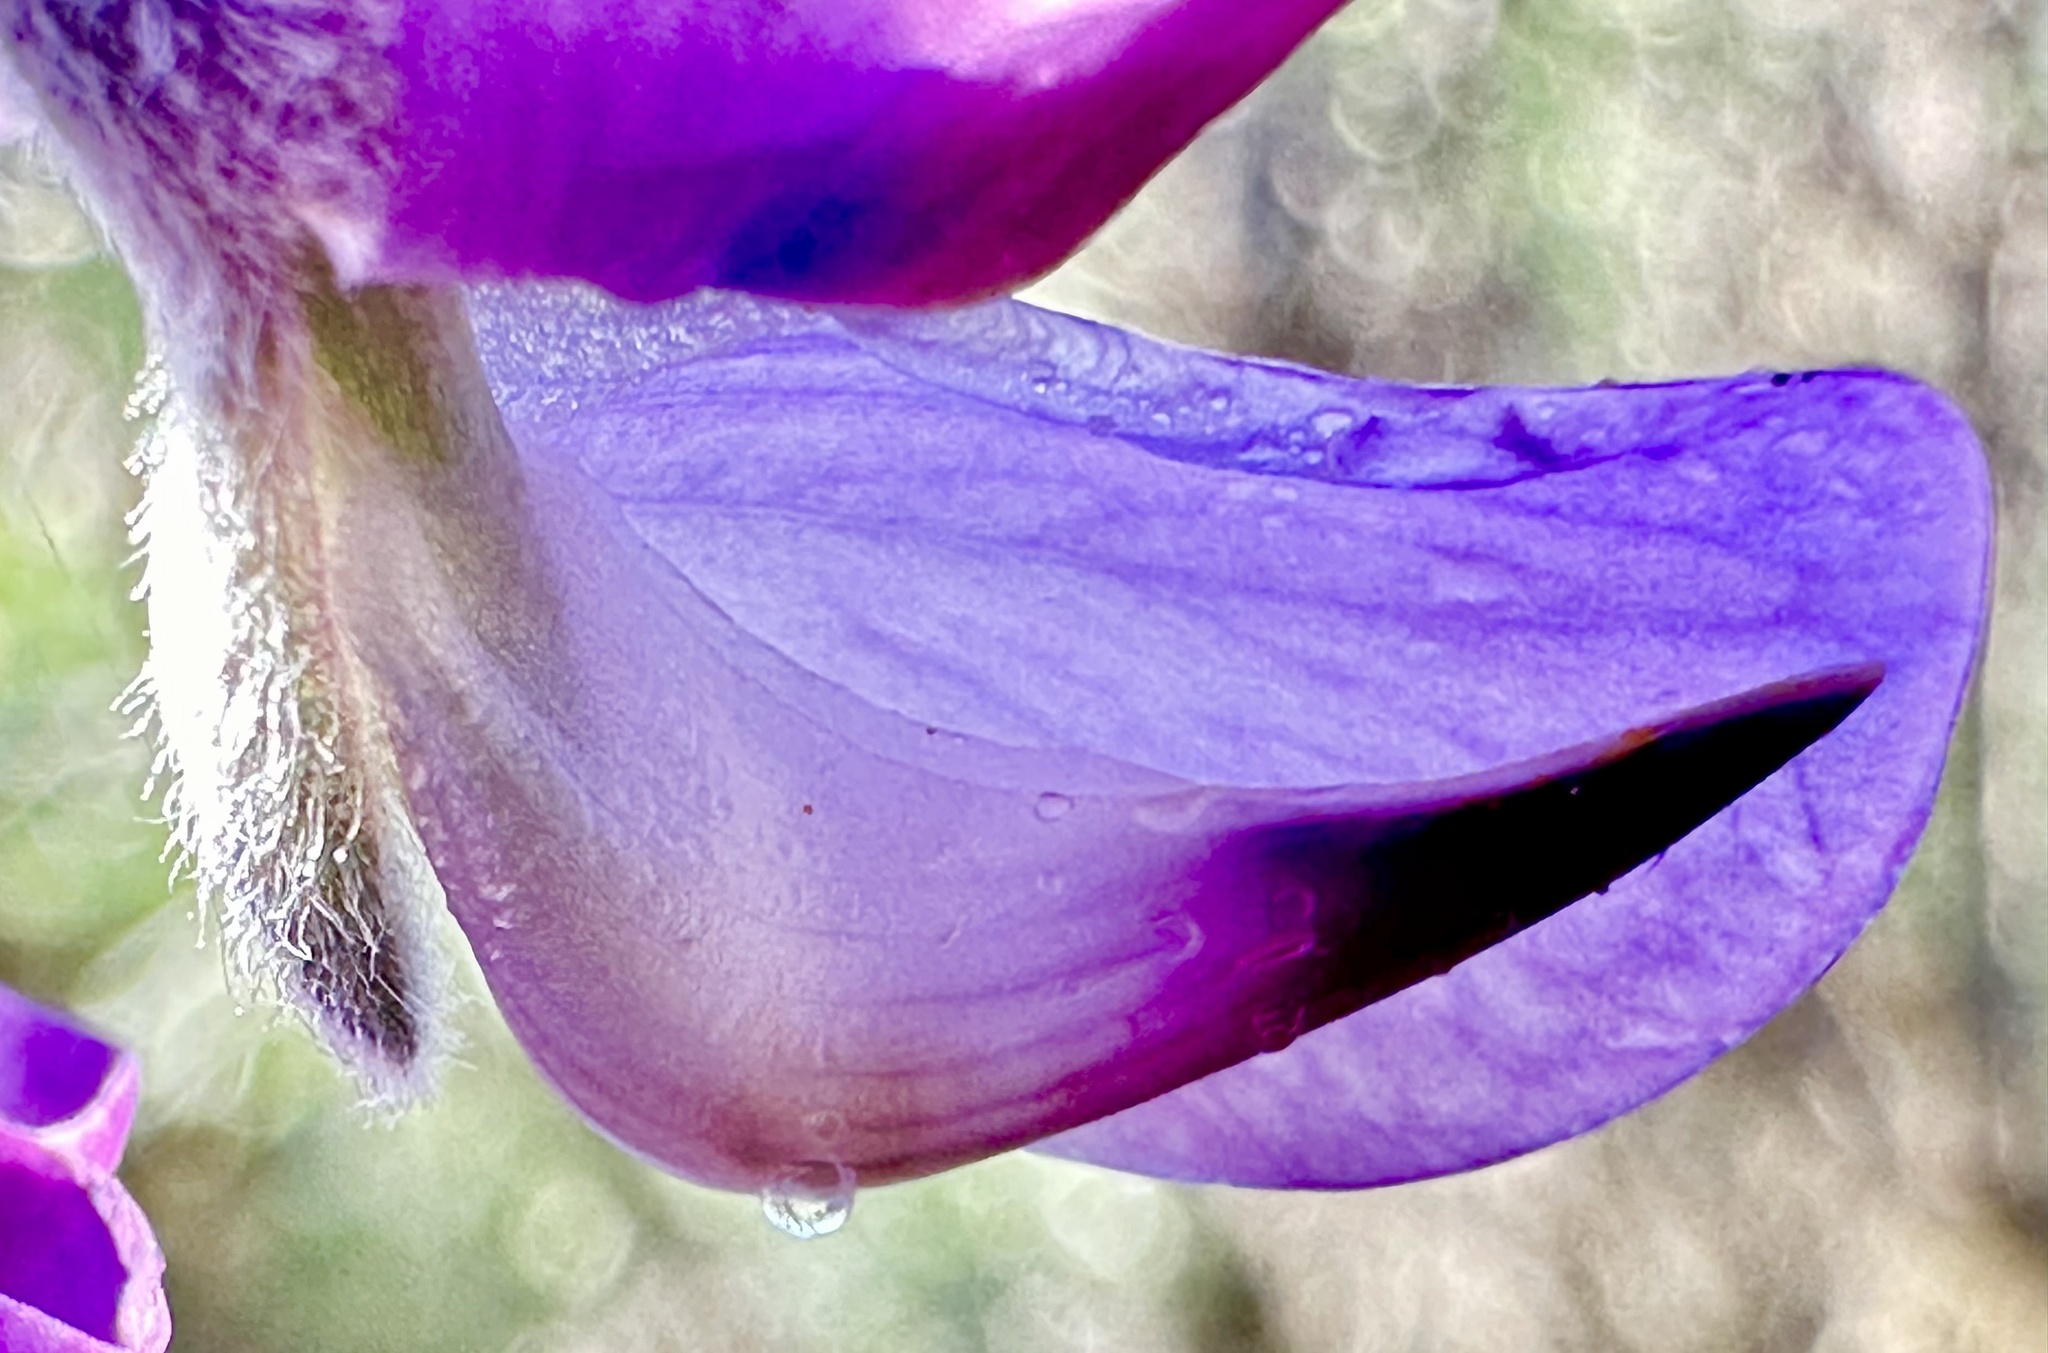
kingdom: Plantae
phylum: Tracheophyta
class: Magnoliopsida
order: Fabales
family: Fabaceae
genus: Lupinus
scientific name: Lupinus chamissonis
